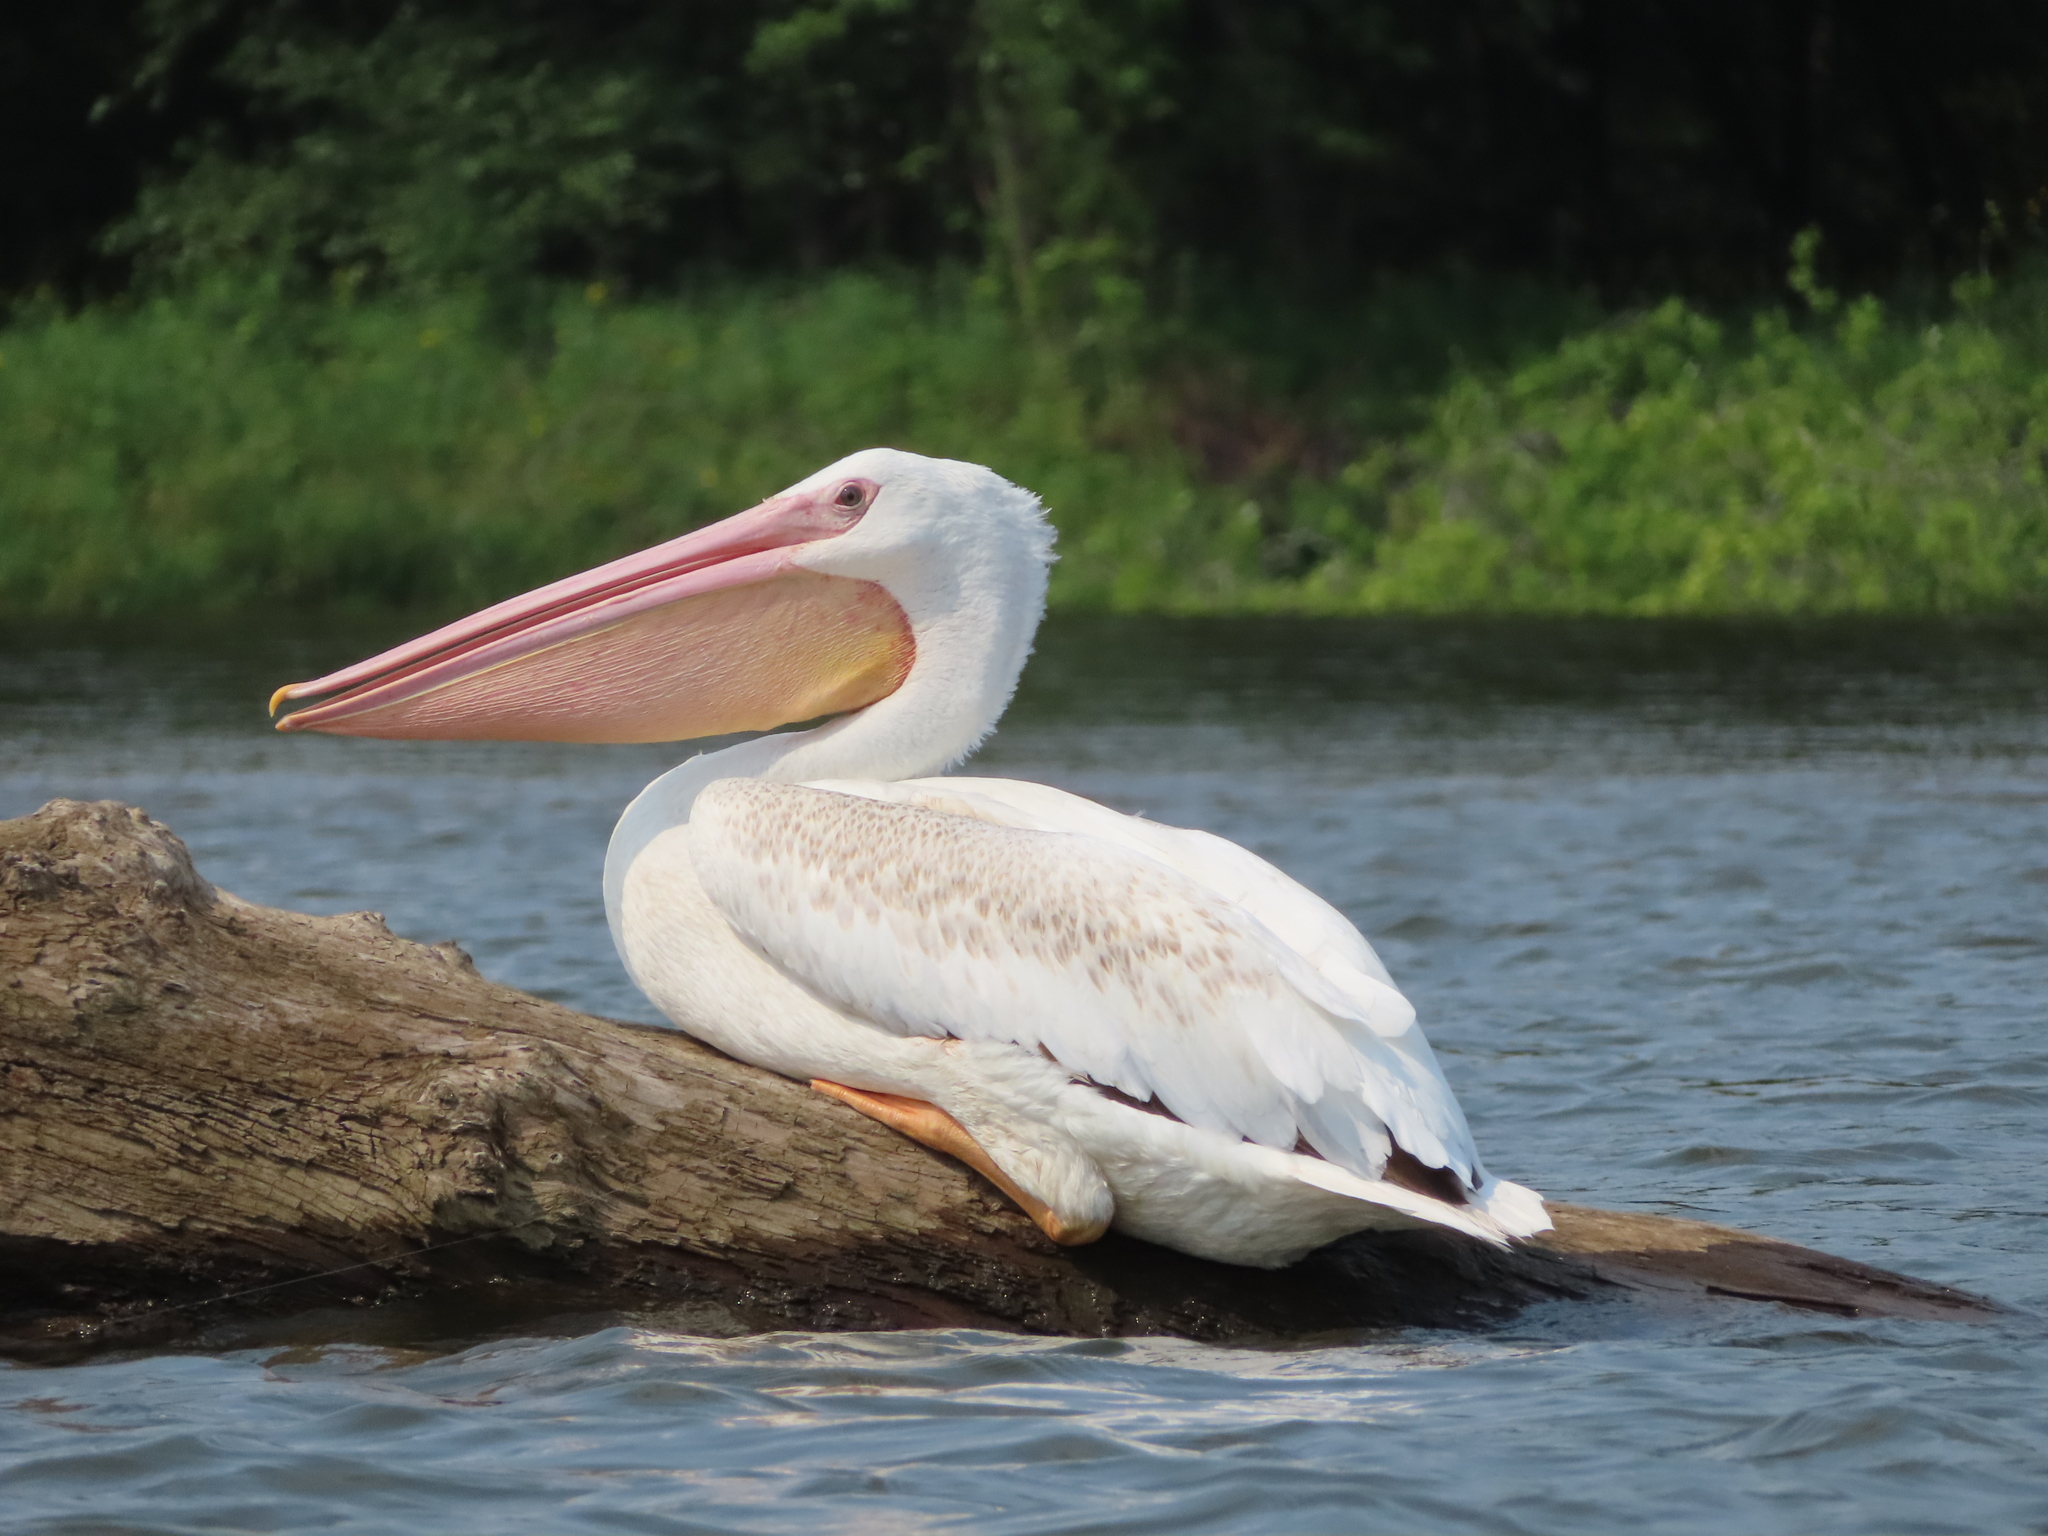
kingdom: Animalia
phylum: Chordata
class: Aves
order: Pelecaniformes
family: Pelecanidae
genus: Pelecanus
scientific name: Pelecanus erythrorhynchos
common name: American white pelican
